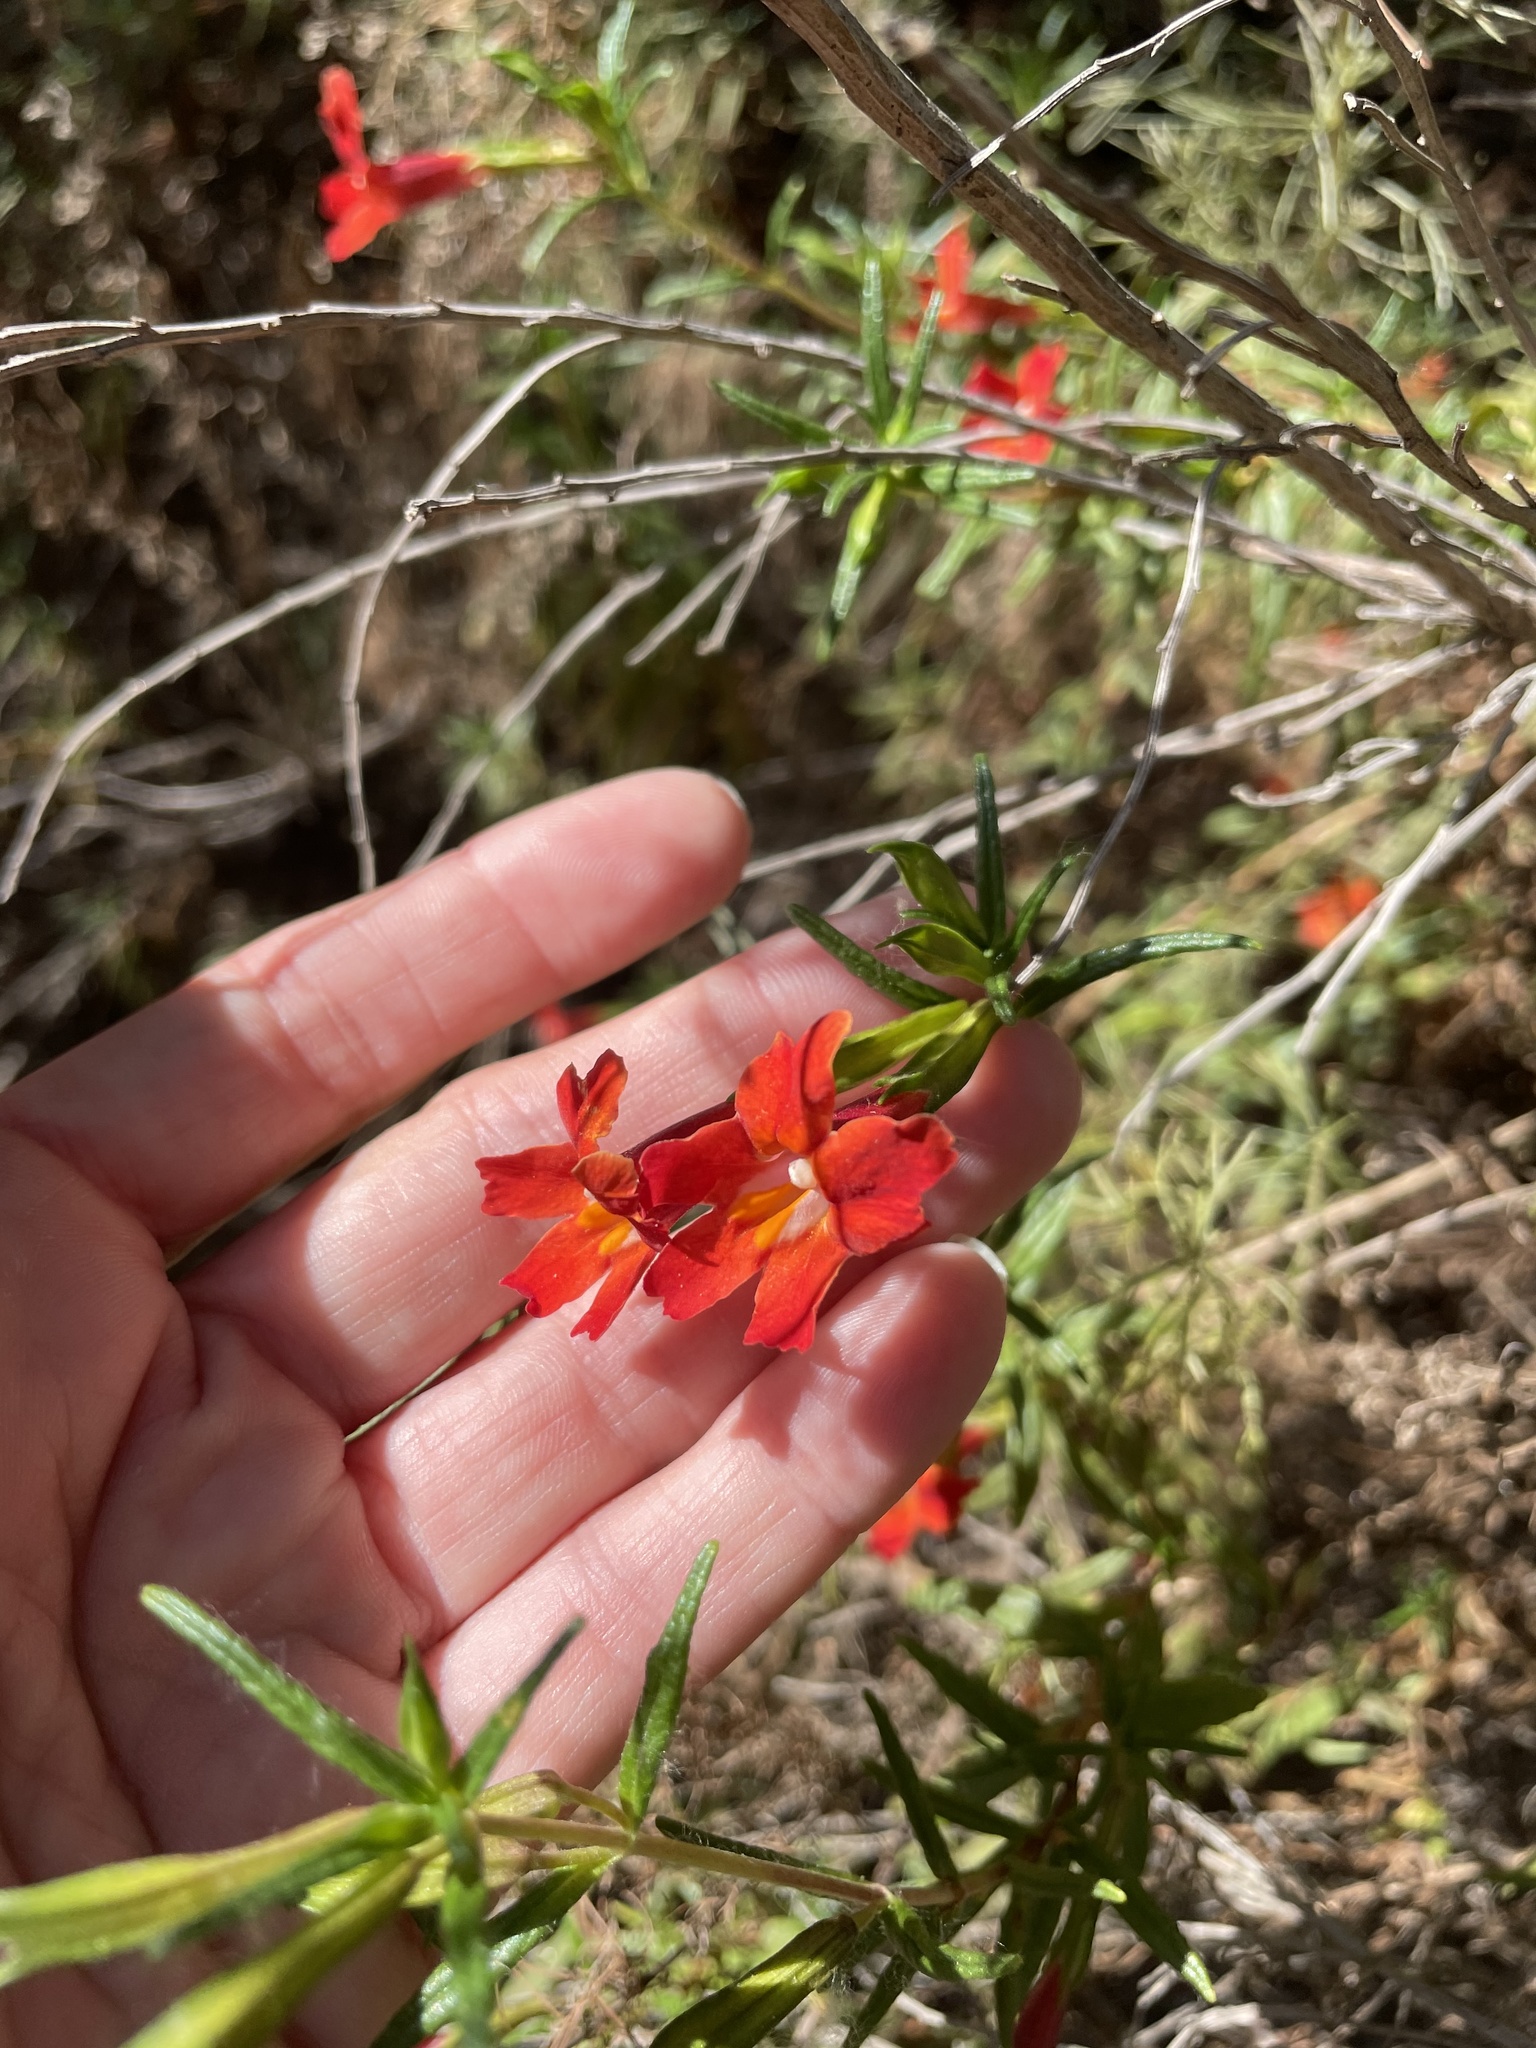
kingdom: Plantae
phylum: Tracheophyta
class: Magnoliopsida
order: Lamiales
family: Phrymaceae
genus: Diplacus
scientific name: Diplacus puniceus
